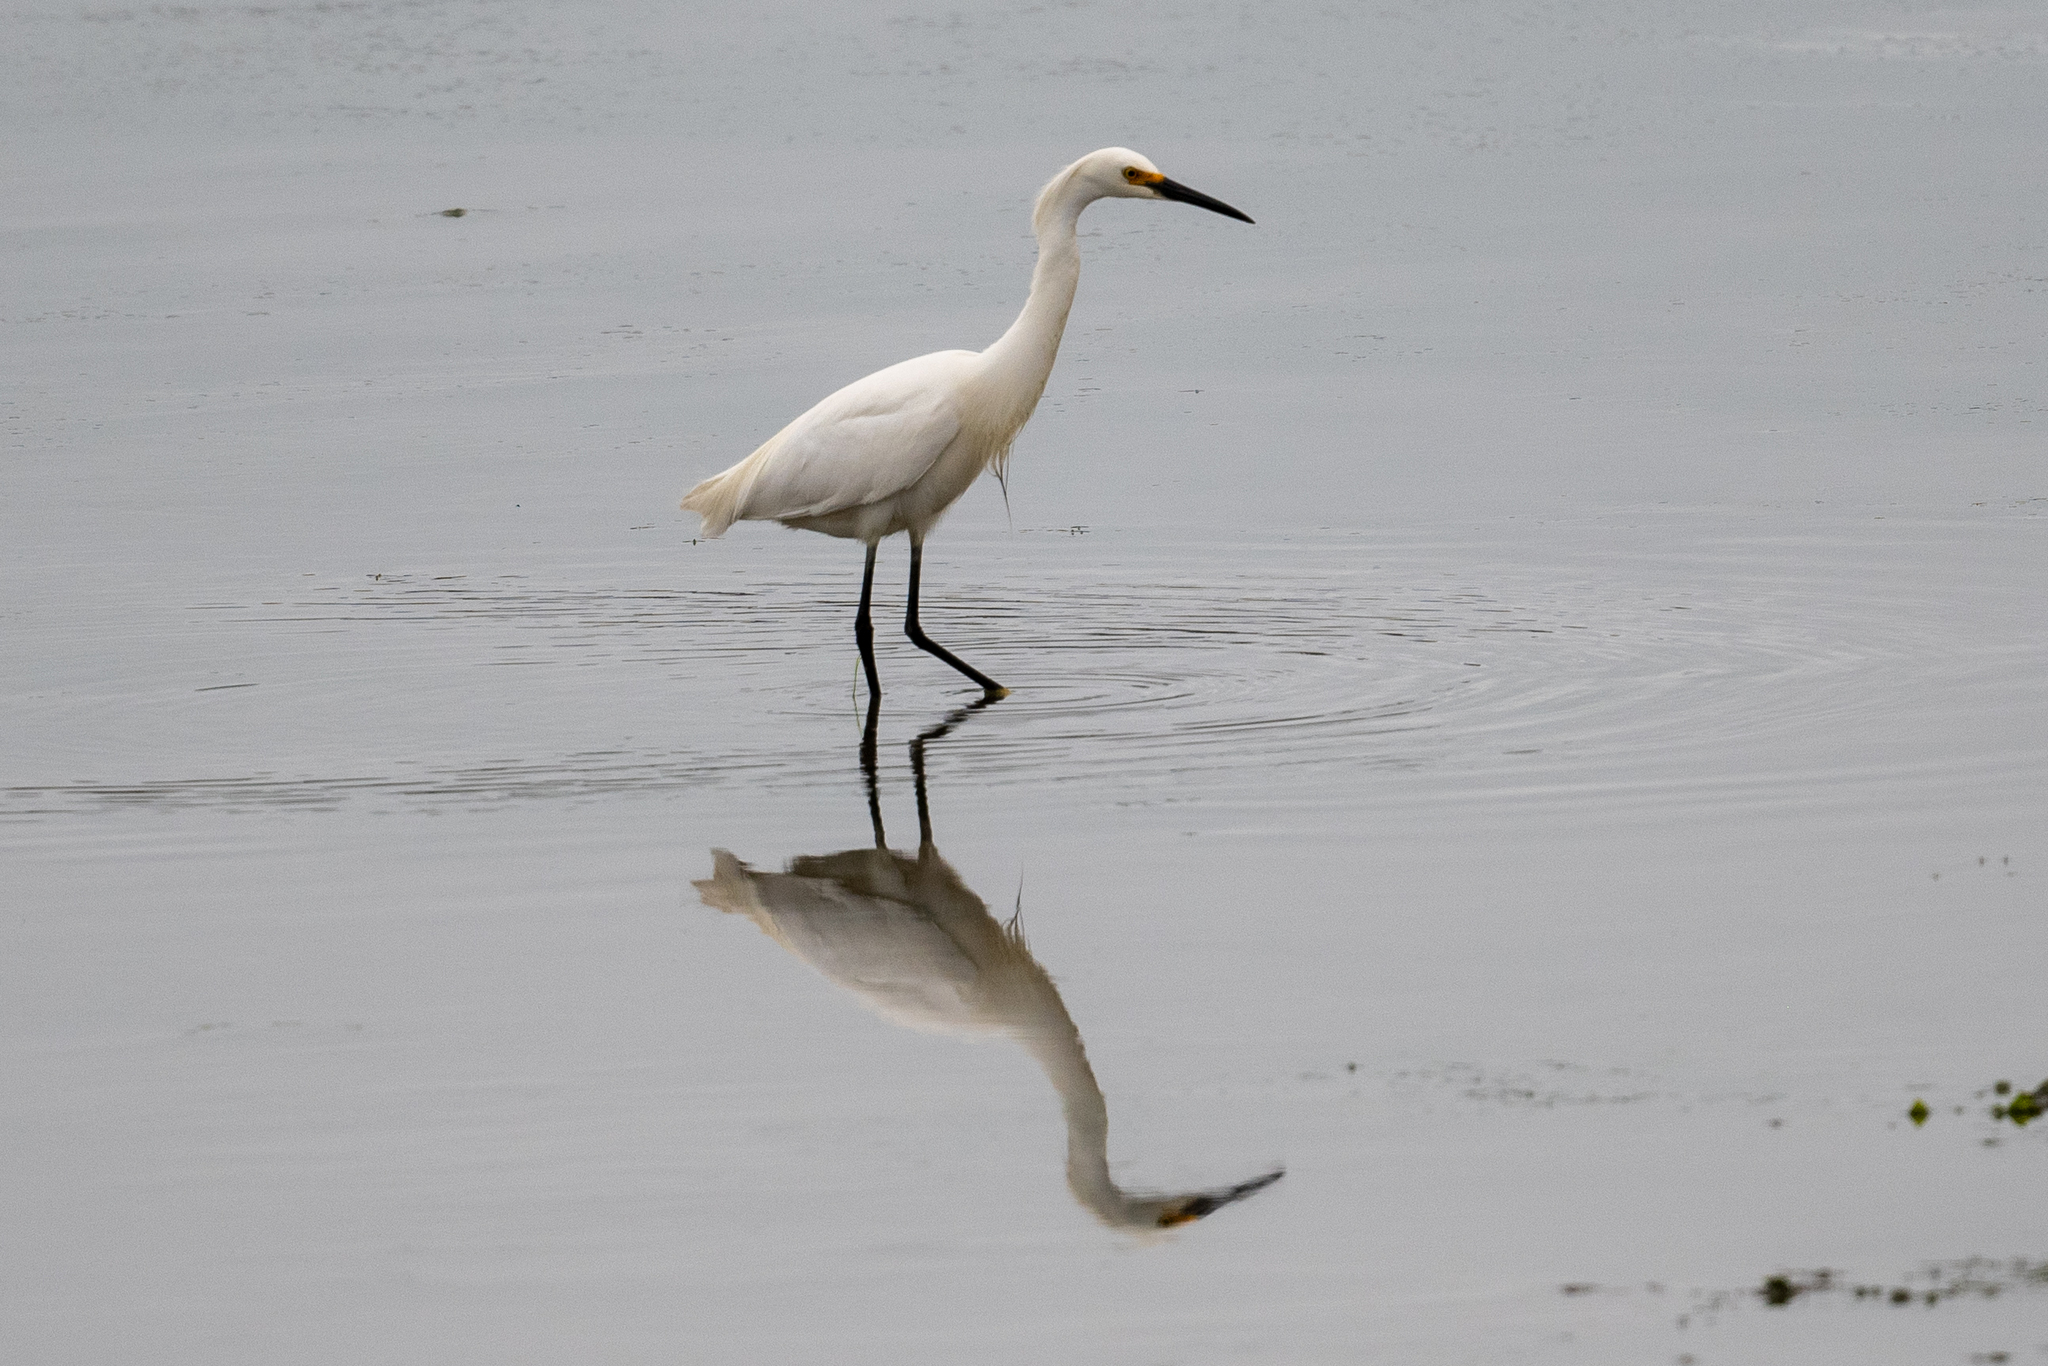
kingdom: Animalia
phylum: Chordata
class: Aves
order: Pelecaniformes
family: Ardeidae
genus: Egretta
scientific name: Egretta thula
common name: Snowy egret
